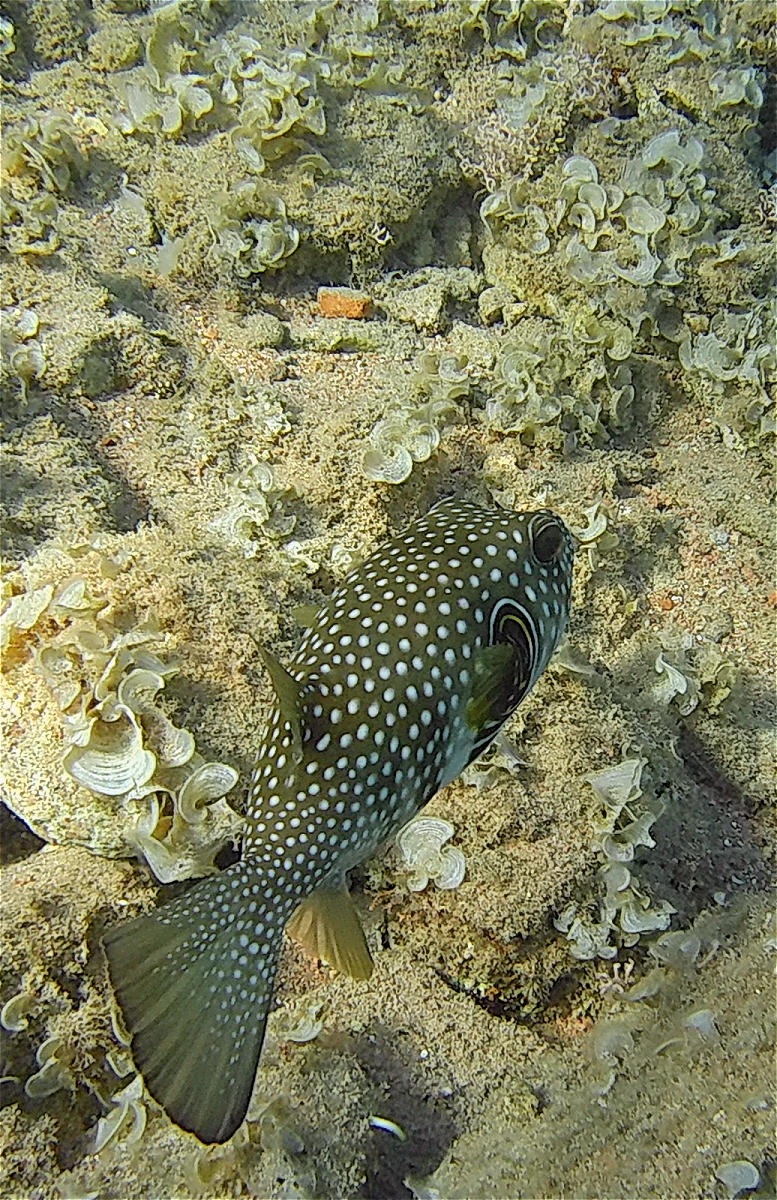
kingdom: Animalia
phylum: Chordata
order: Tetraodontiformes
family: Tetraodontidae
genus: Arothron
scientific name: Arothron hispidus
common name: Stripebelly puffer
